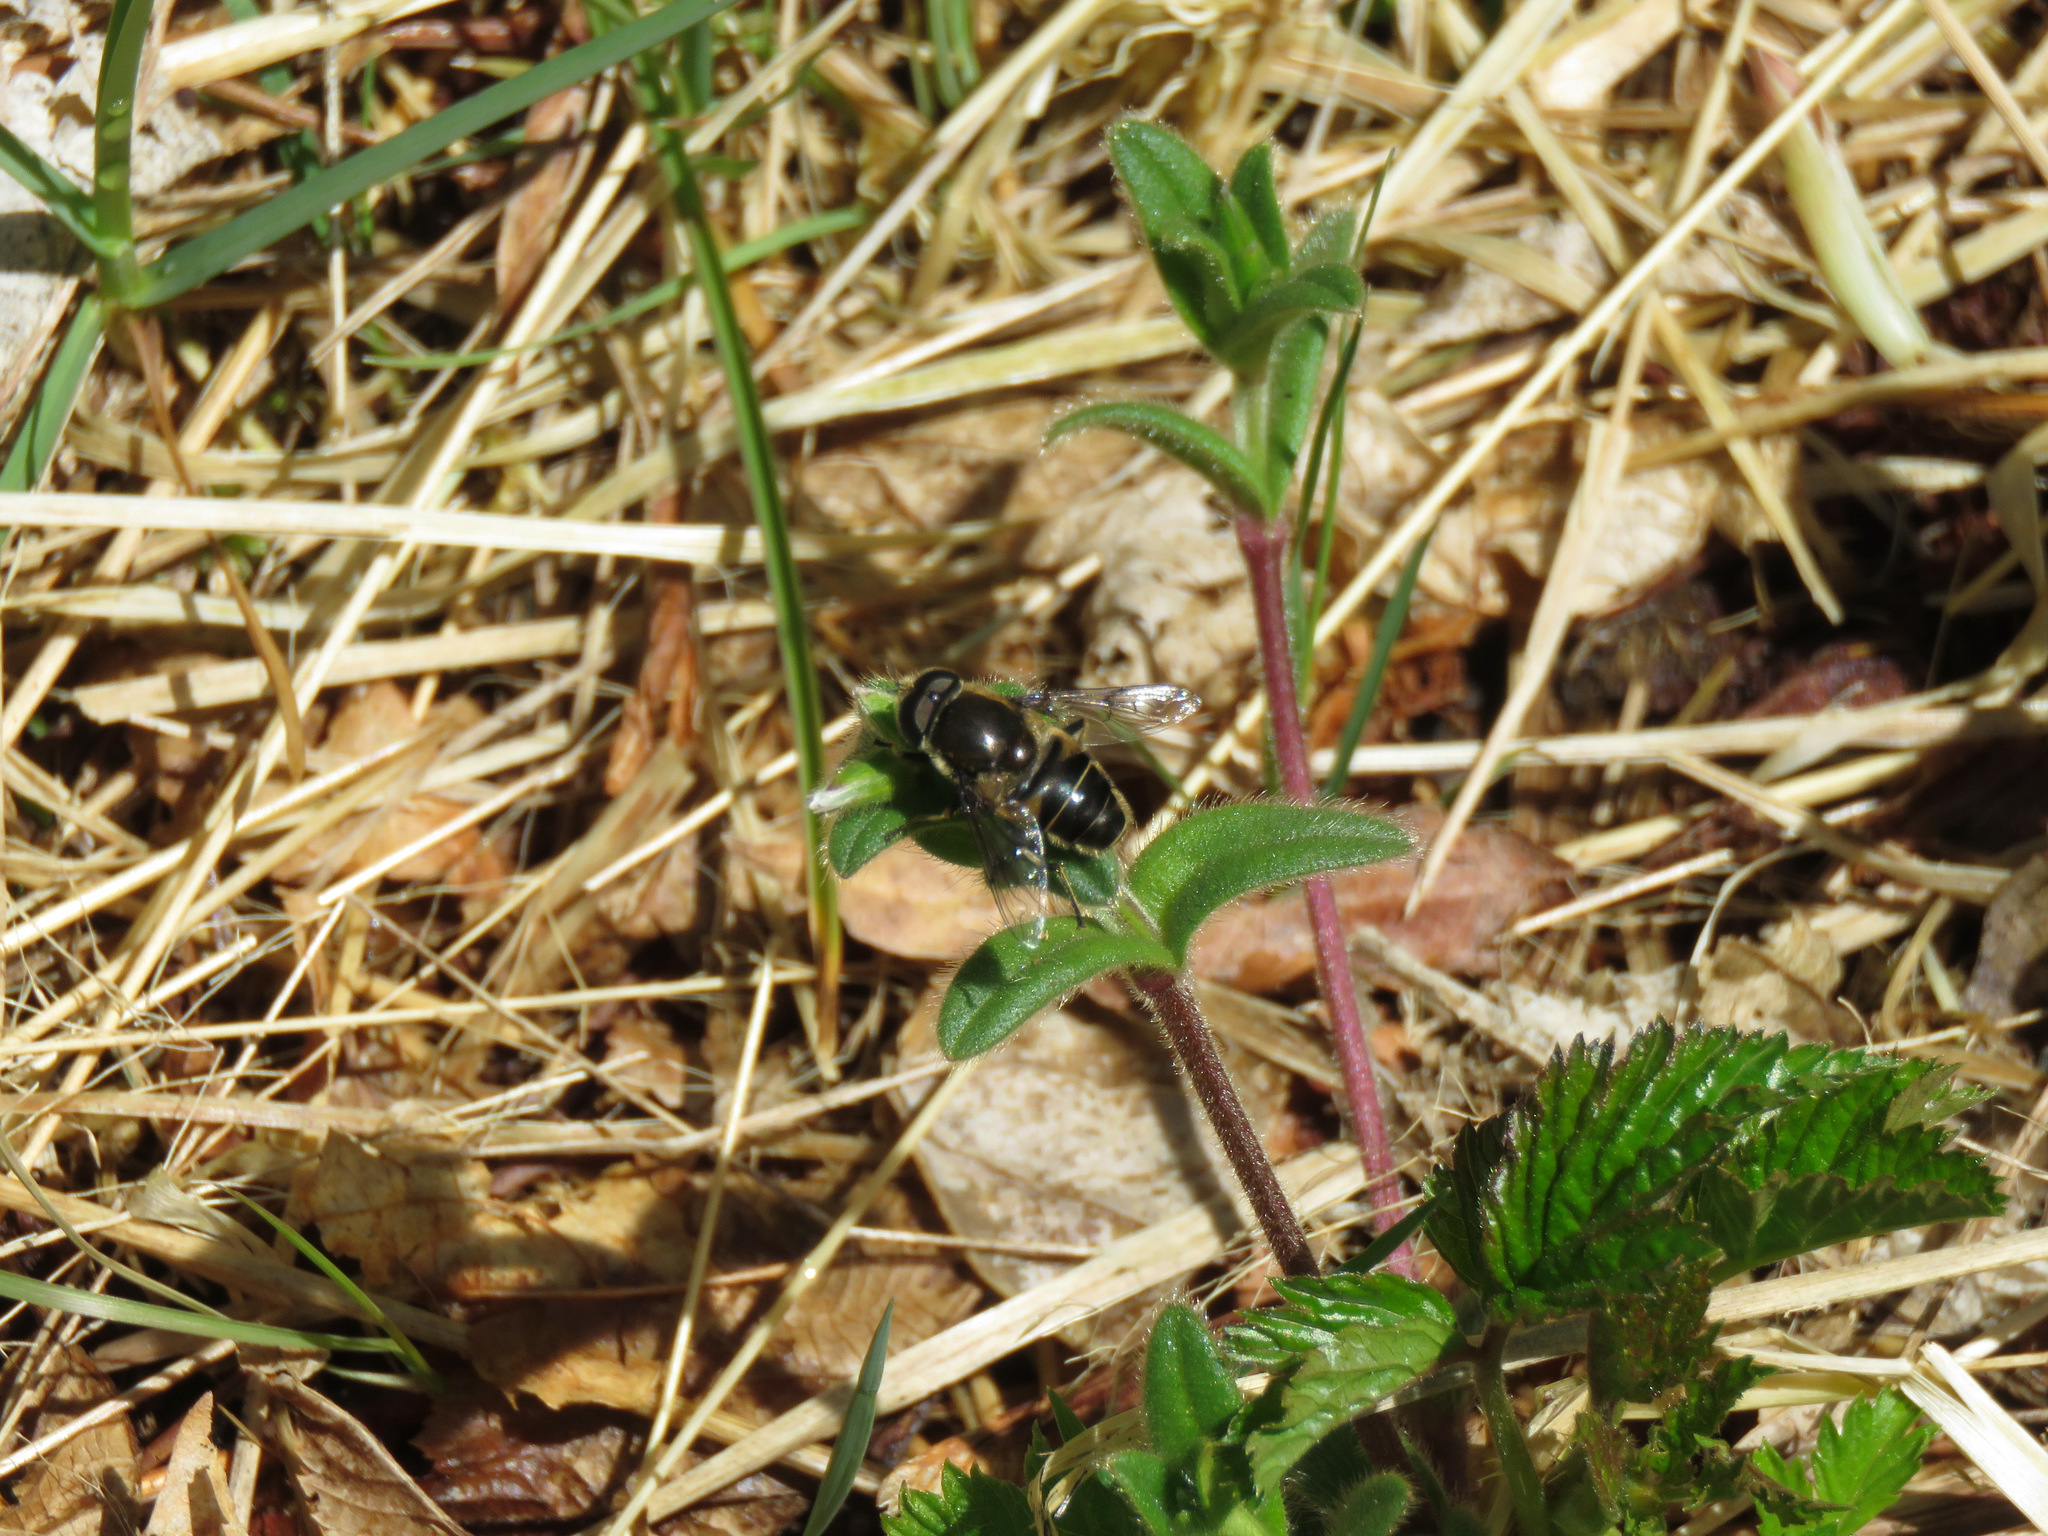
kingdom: Animalia
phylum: Arthropoda
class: Insecta
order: Diptera
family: Syrphidae
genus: Eristalis
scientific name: Eristalis obscura
